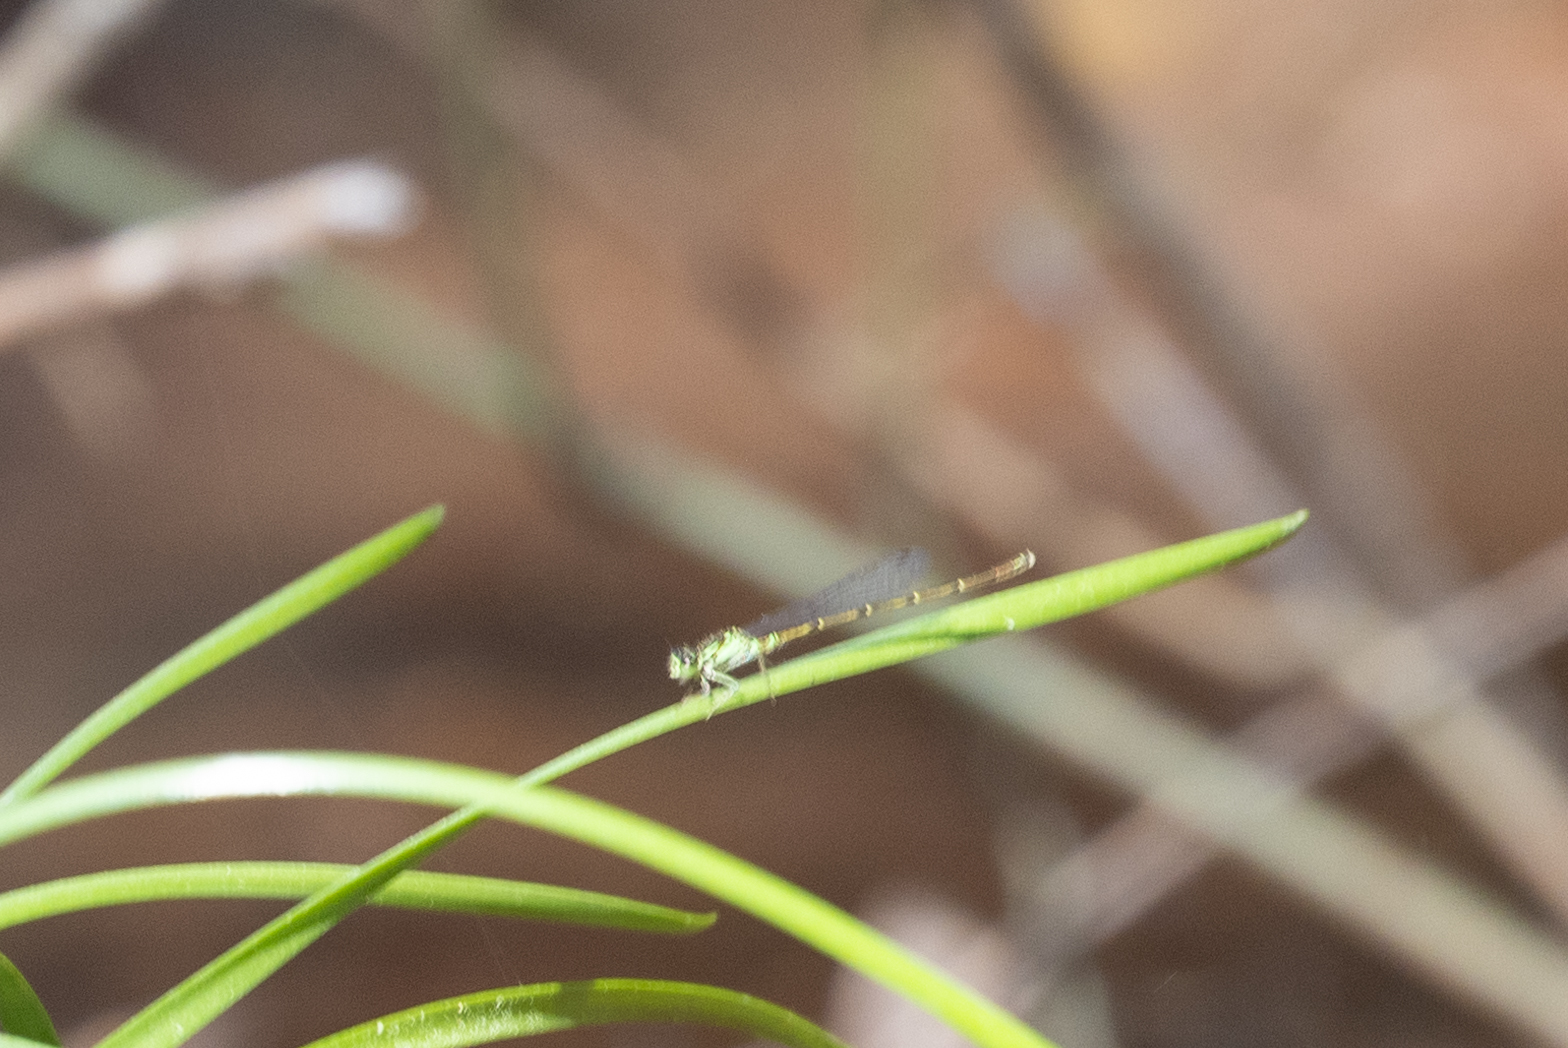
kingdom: Animalia
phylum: Arthropoda
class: Insecta
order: Odonata
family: Coenagrionidae
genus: Ischnura
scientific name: Ischnura posita
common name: Fragile forktail
